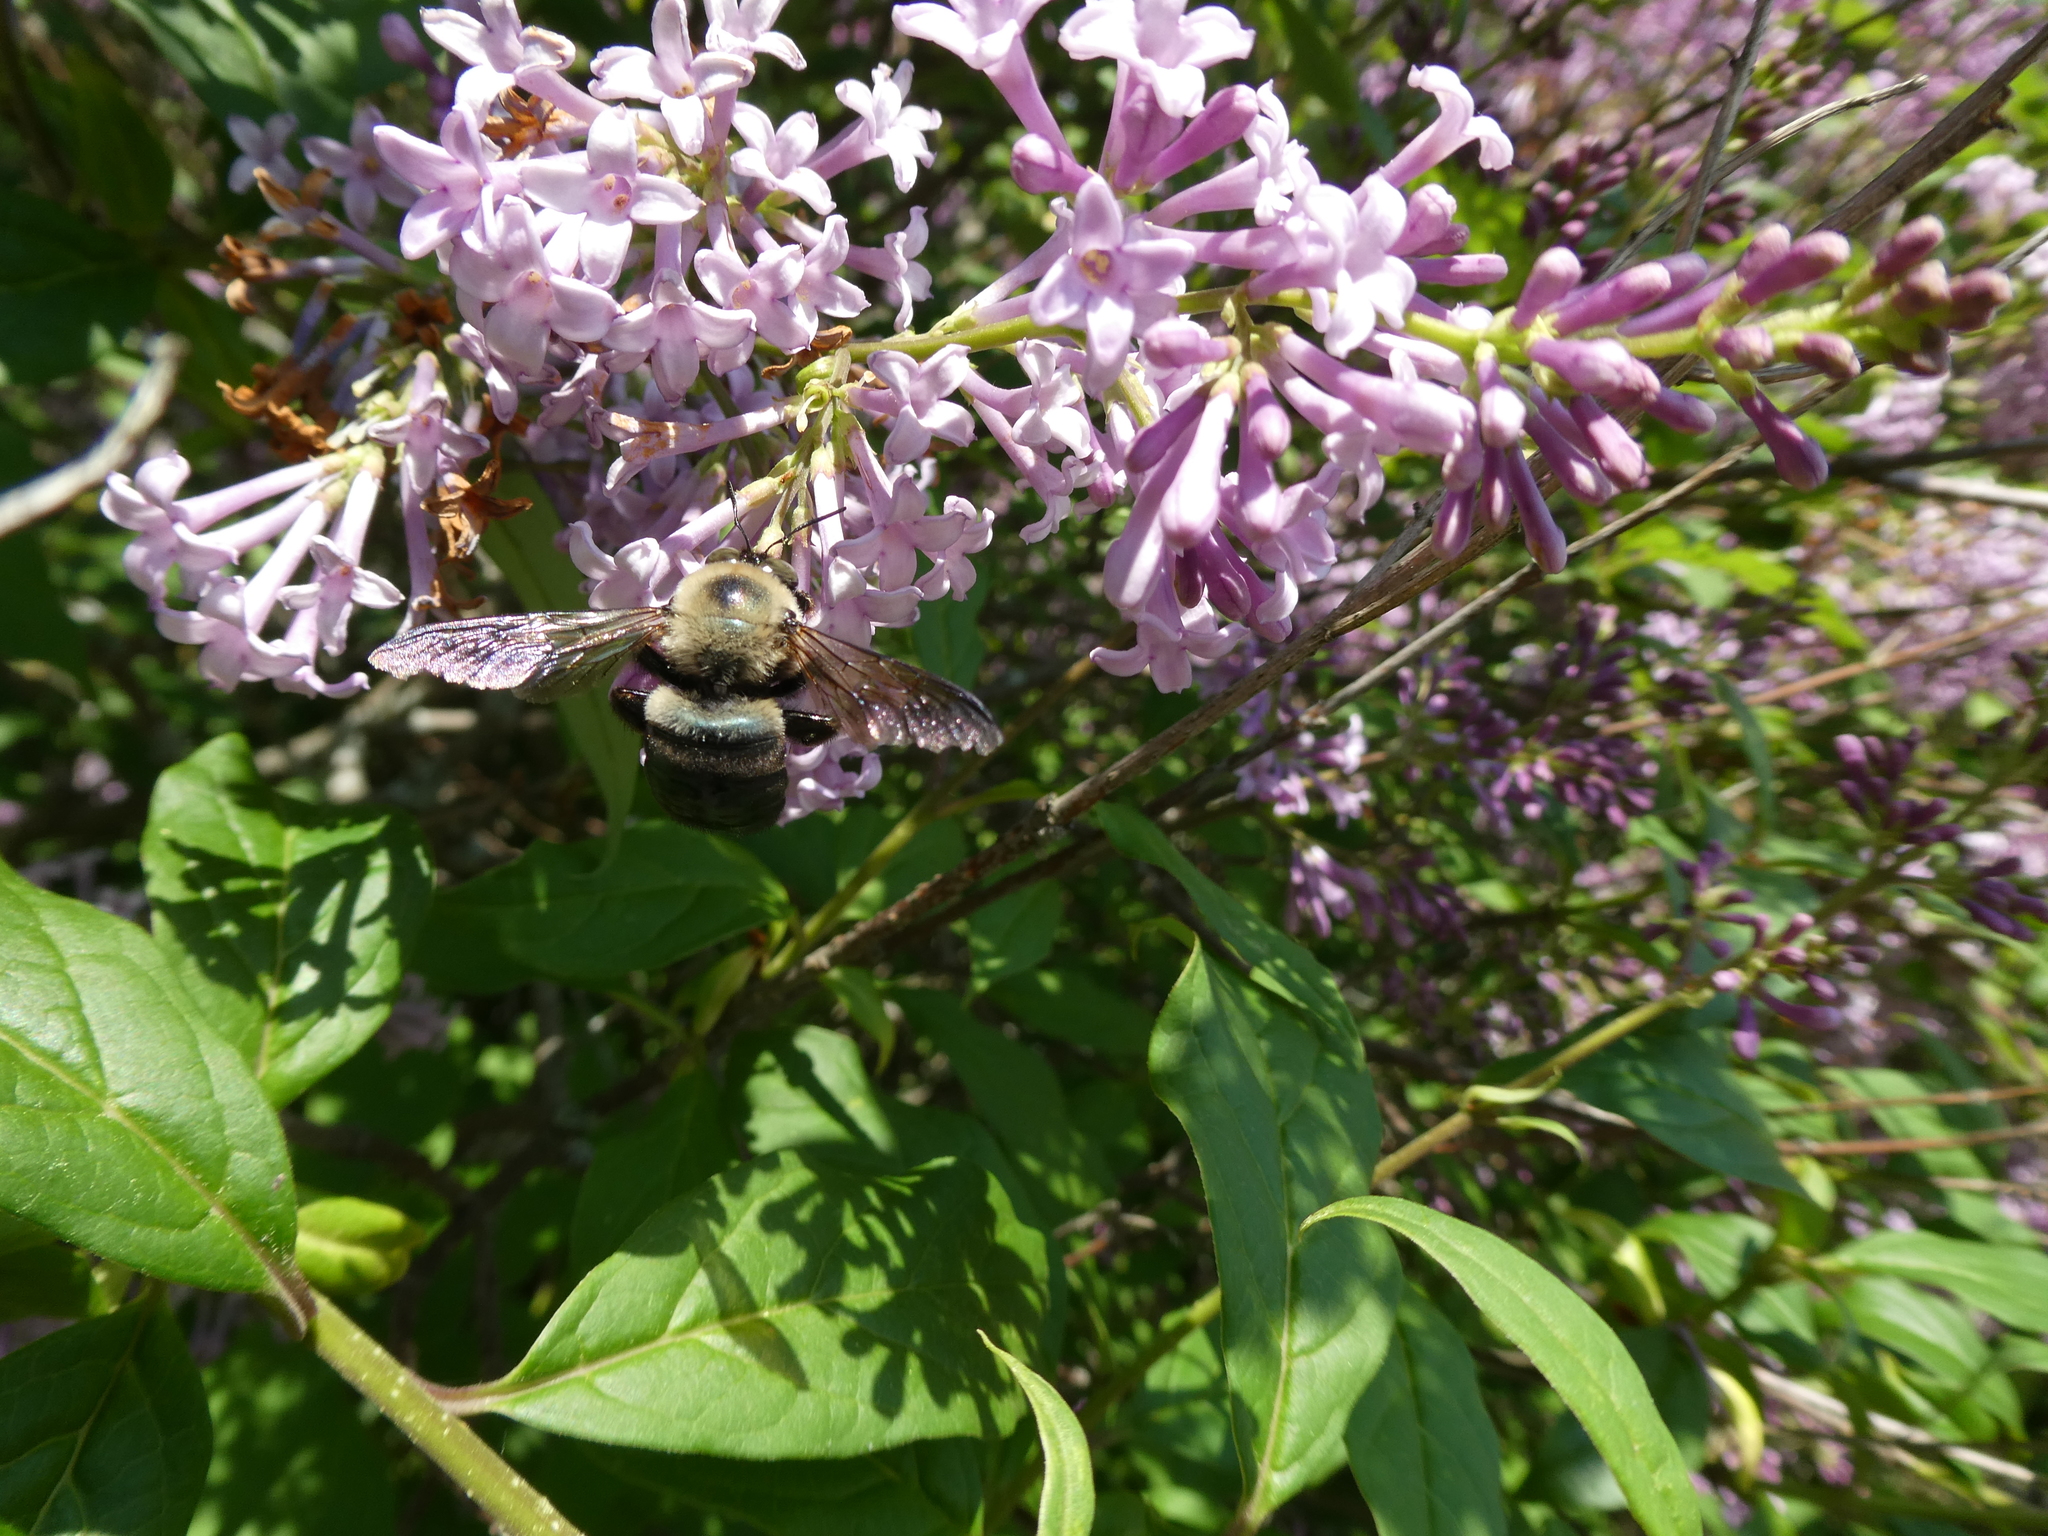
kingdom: Animalia
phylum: Arthropoda
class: Insecta
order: Hymenoptera
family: Apidae
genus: Xylocopa
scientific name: Xylocopa virginica
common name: Carpenter bee
